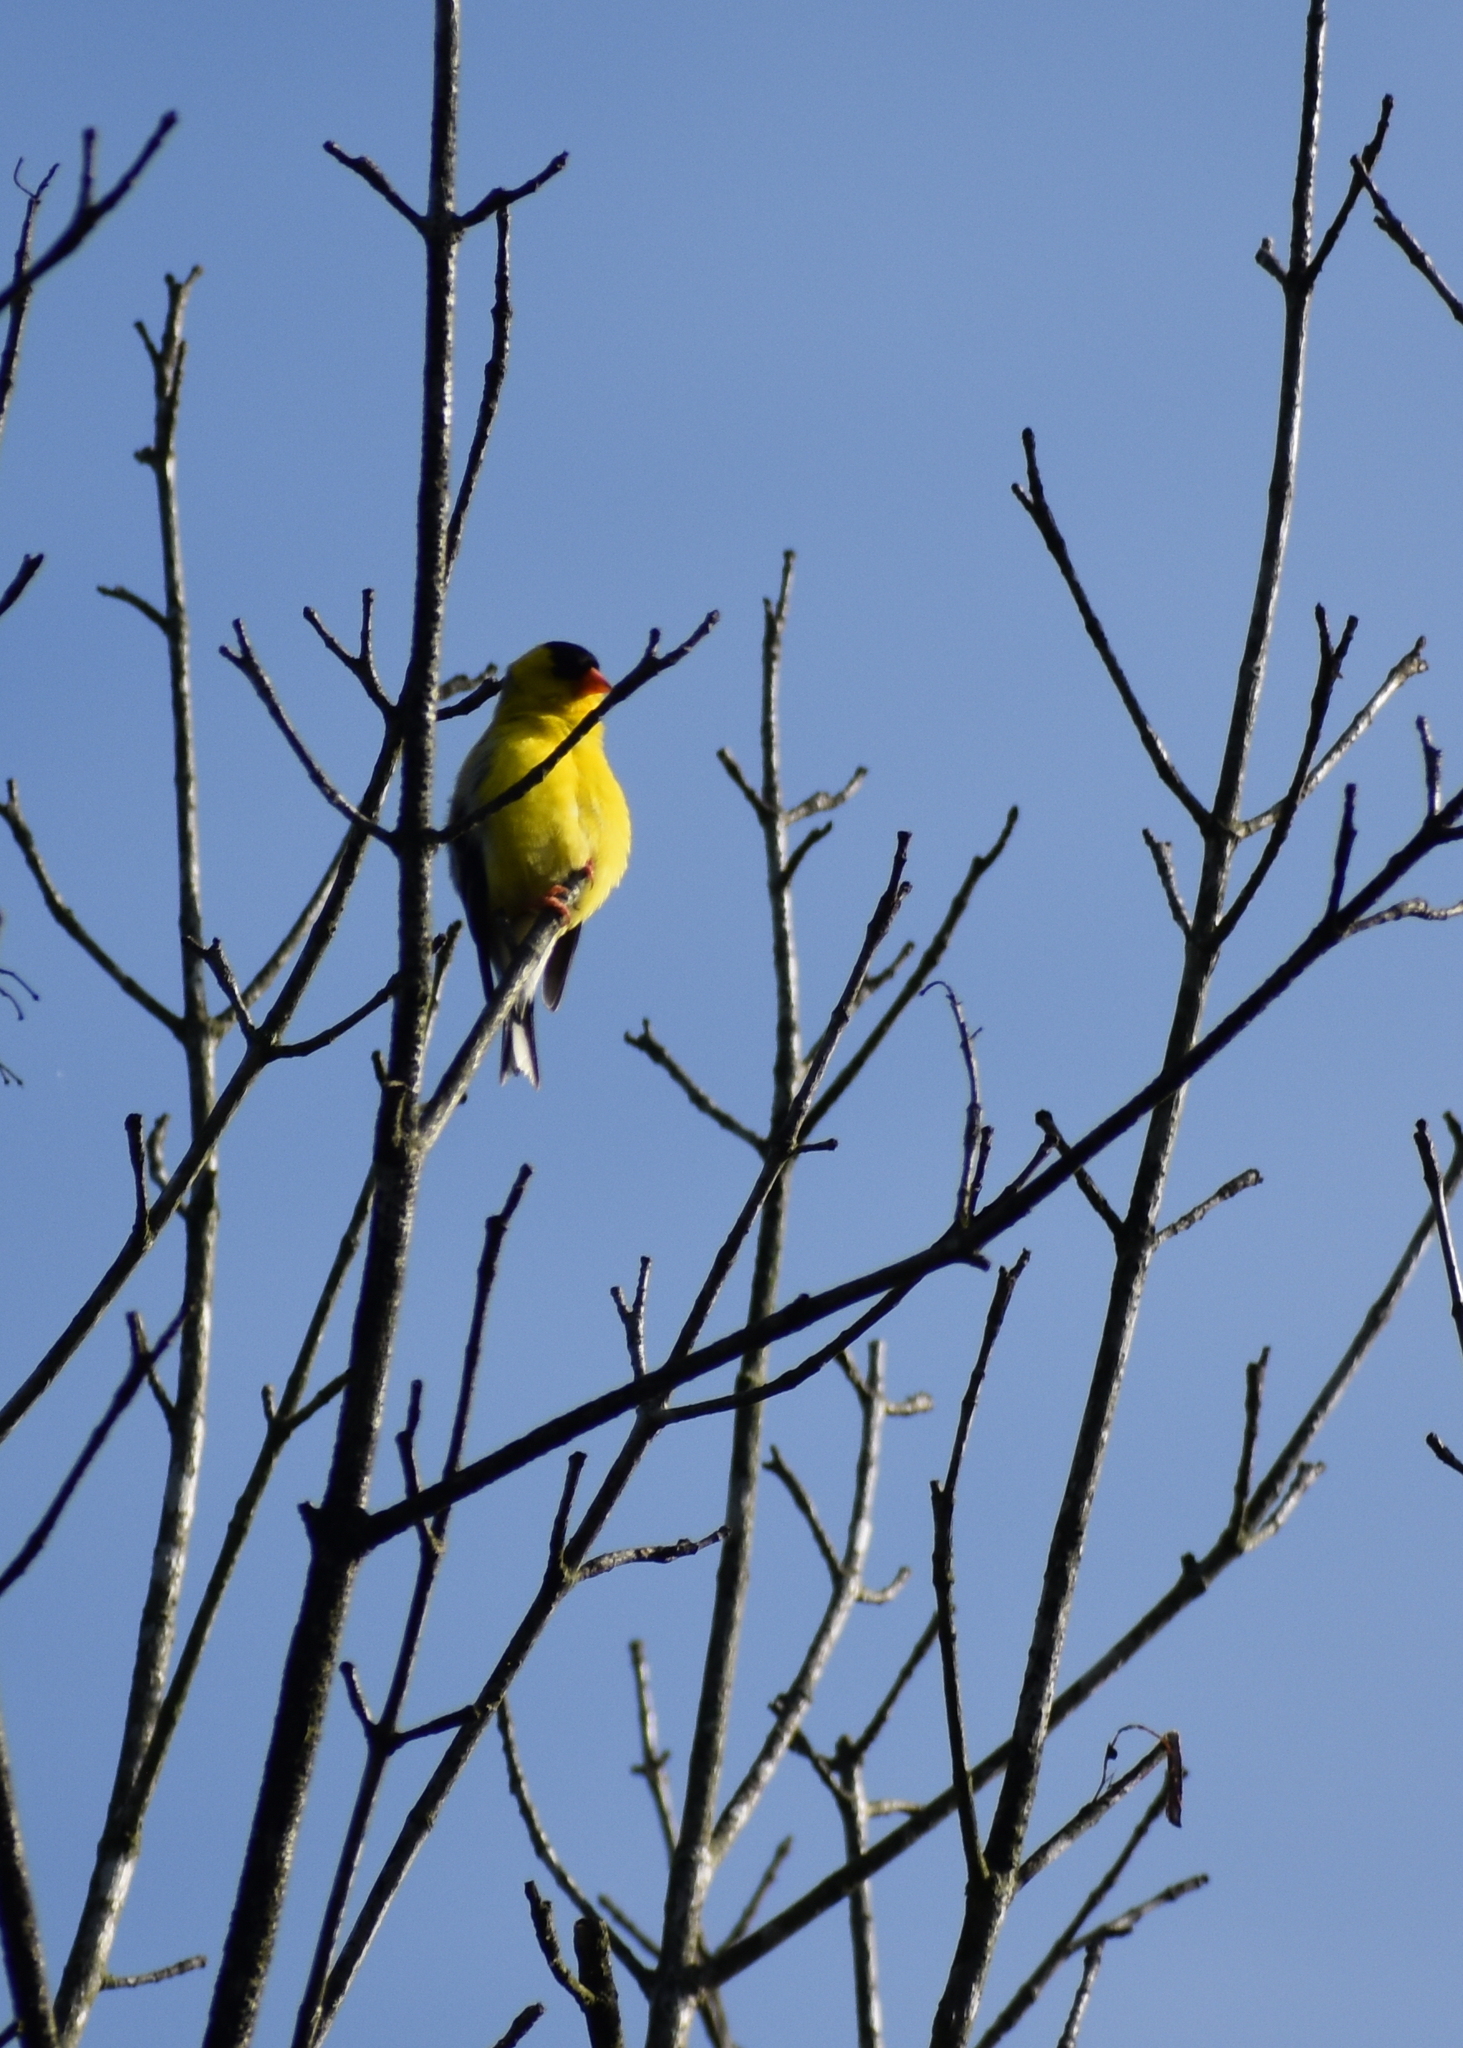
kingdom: Animalia
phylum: Chordata
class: Aves
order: Passeriformes
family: Fringillidae
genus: Spinus
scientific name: Spinus tristis
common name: American goldfinch
